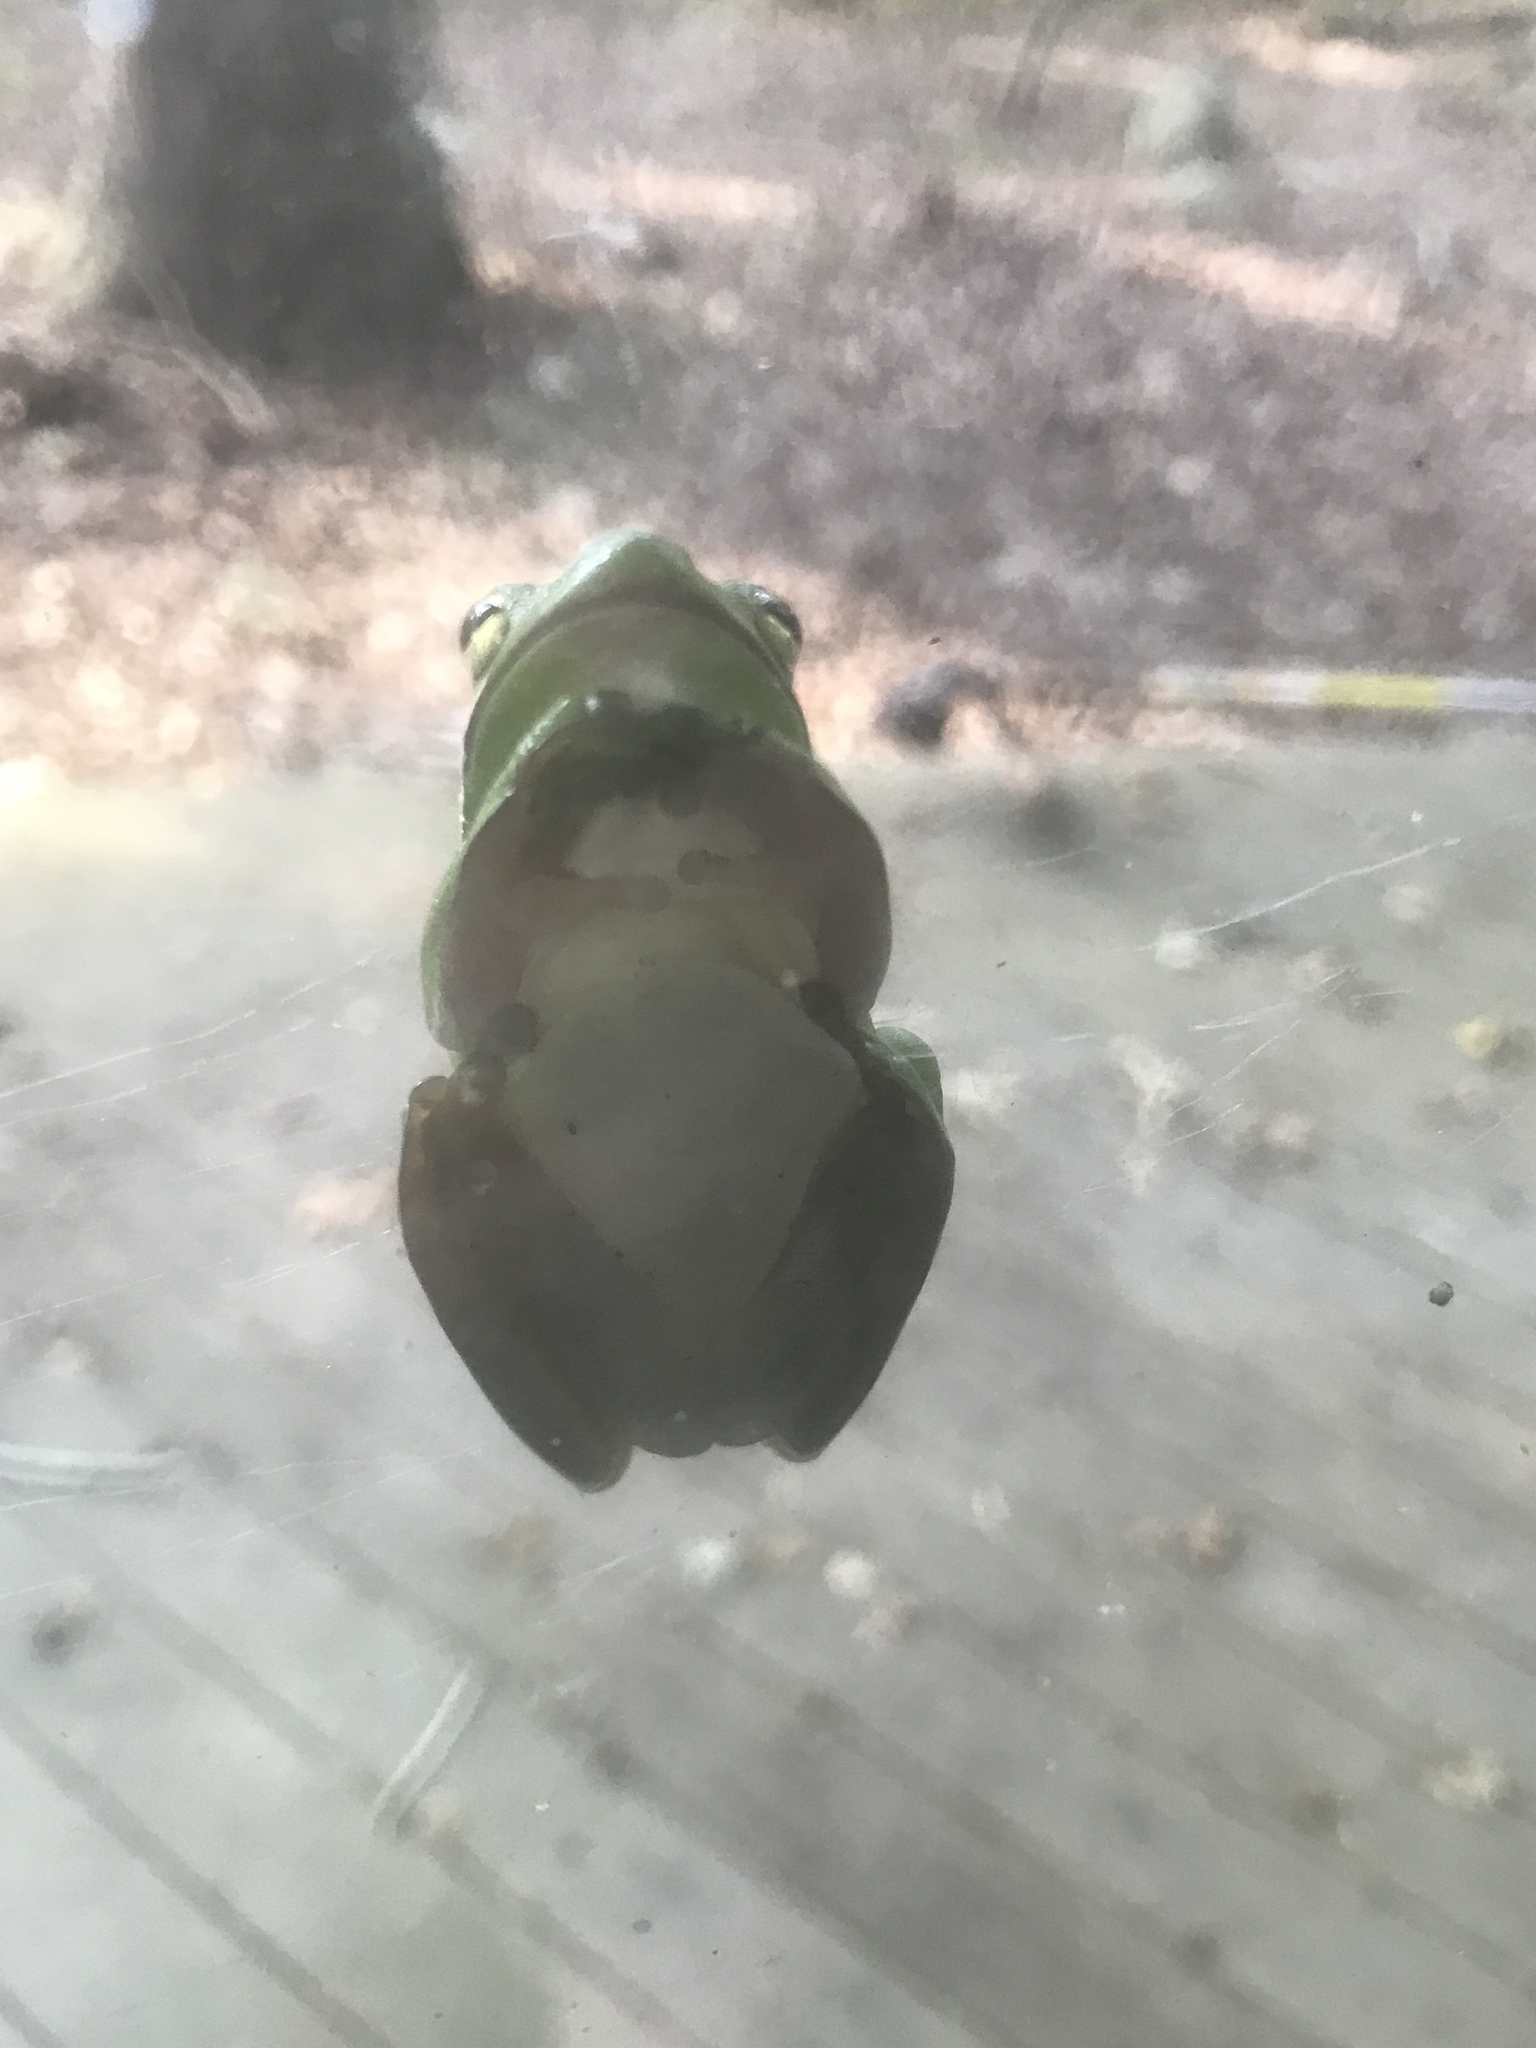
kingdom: Animalia
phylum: Chordata
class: Amphibia
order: Anura
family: Hylidae
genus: Dryophytes
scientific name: Dryophytes cinereus
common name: Green treefrog
